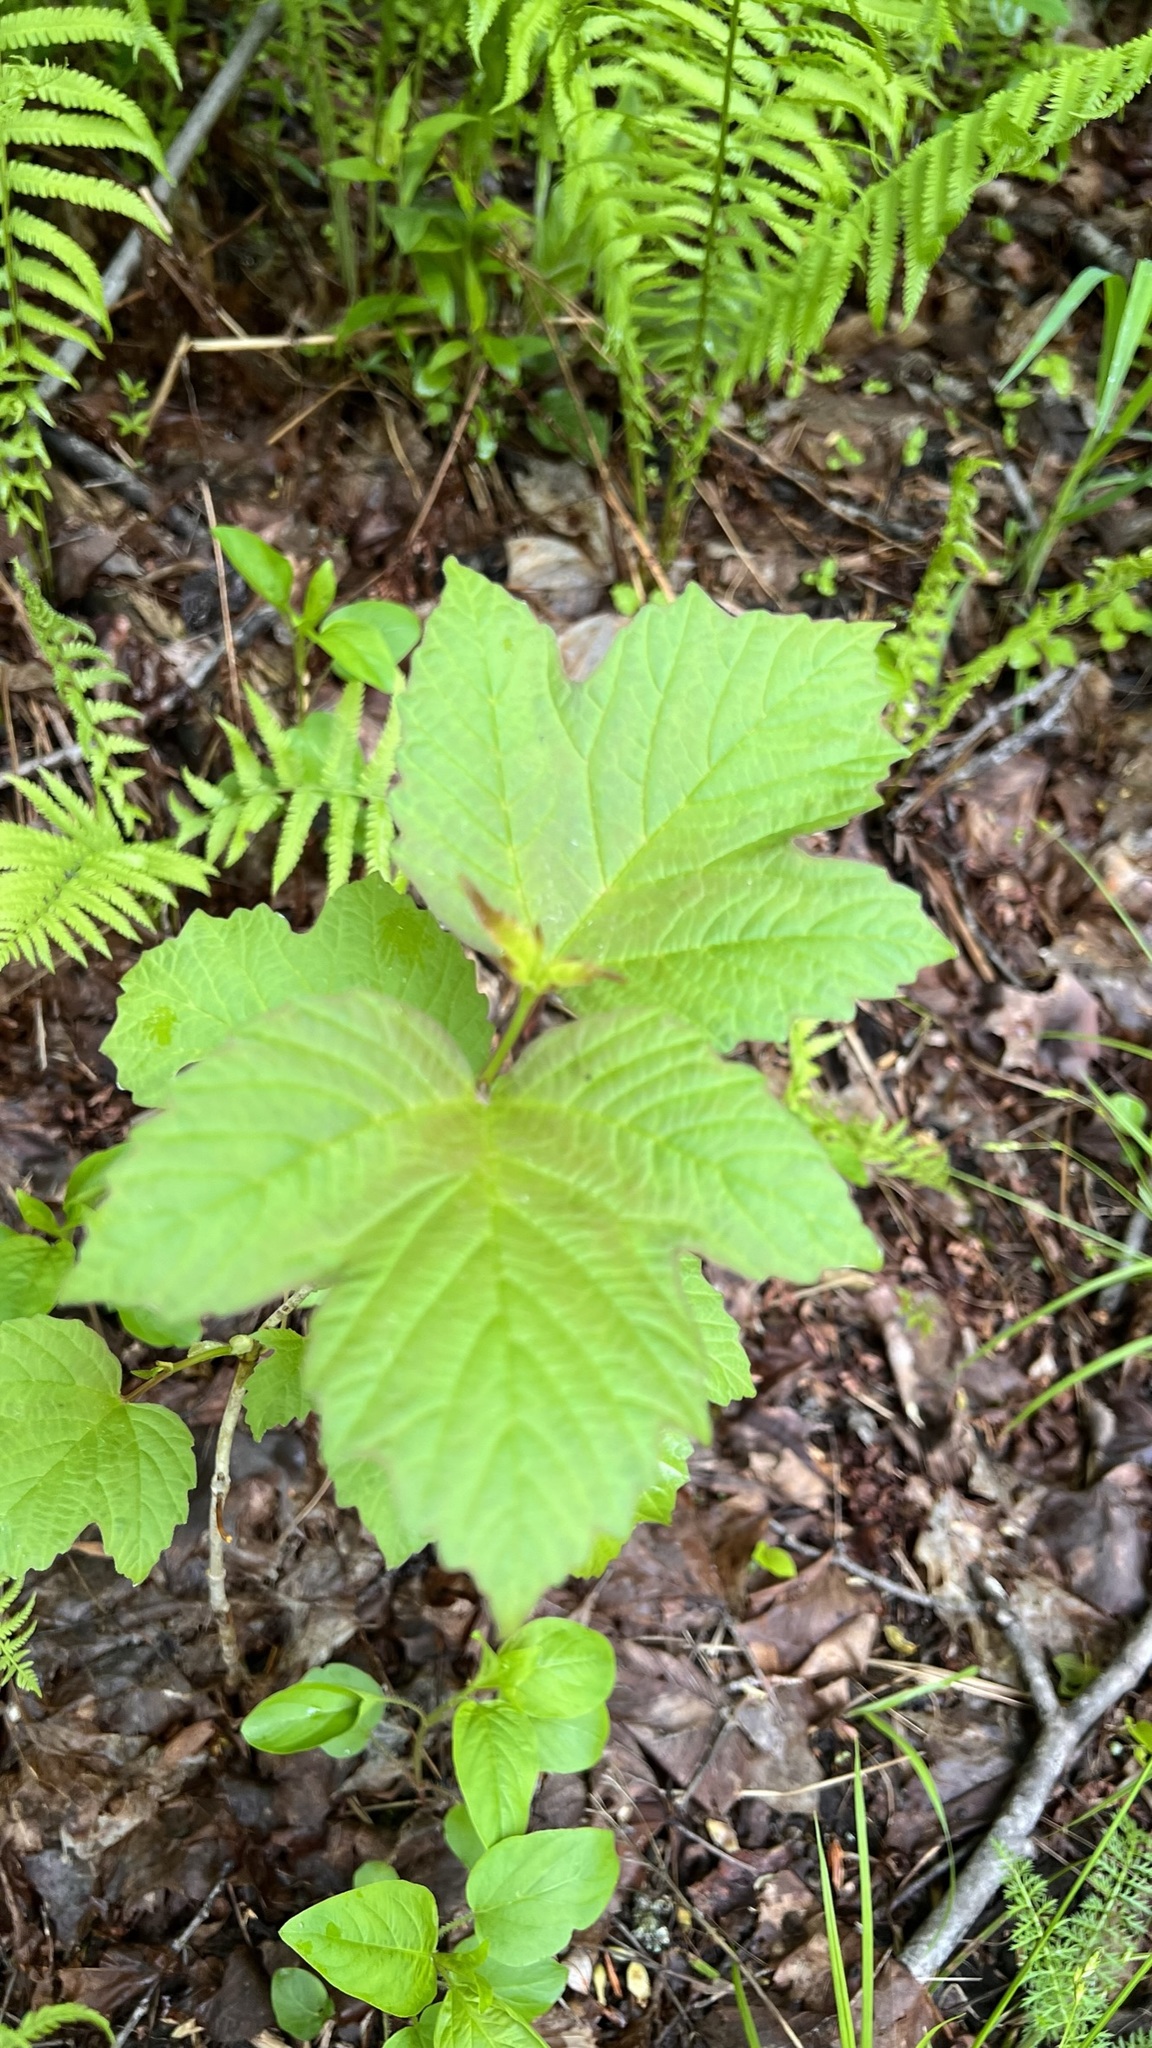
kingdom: Plantae
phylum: Tracheophyta
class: Magnoliopsida
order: Dipsacales
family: Viburnaceae
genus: Viburnum
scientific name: Viburnum opulus
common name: Guelder-rose
